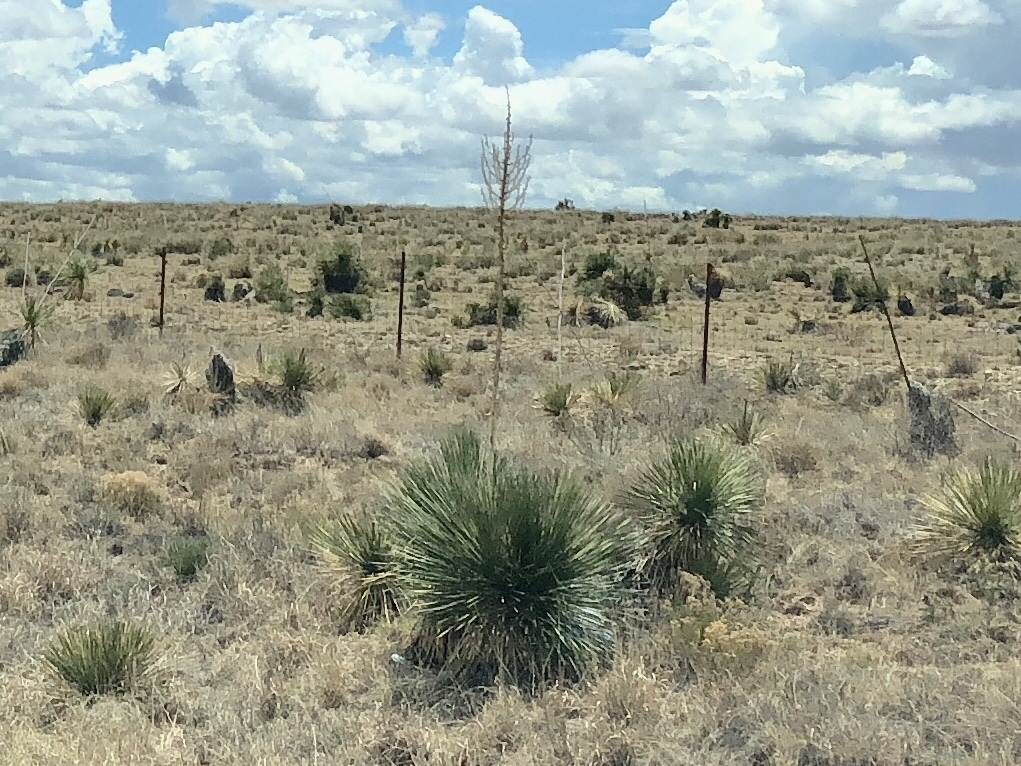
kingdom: Plantae
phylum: Tracheophyta
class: Liliopsida
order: Asparagales
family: Asparagaceae
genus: Yucca
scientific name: Yucca elata
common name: Palmella
